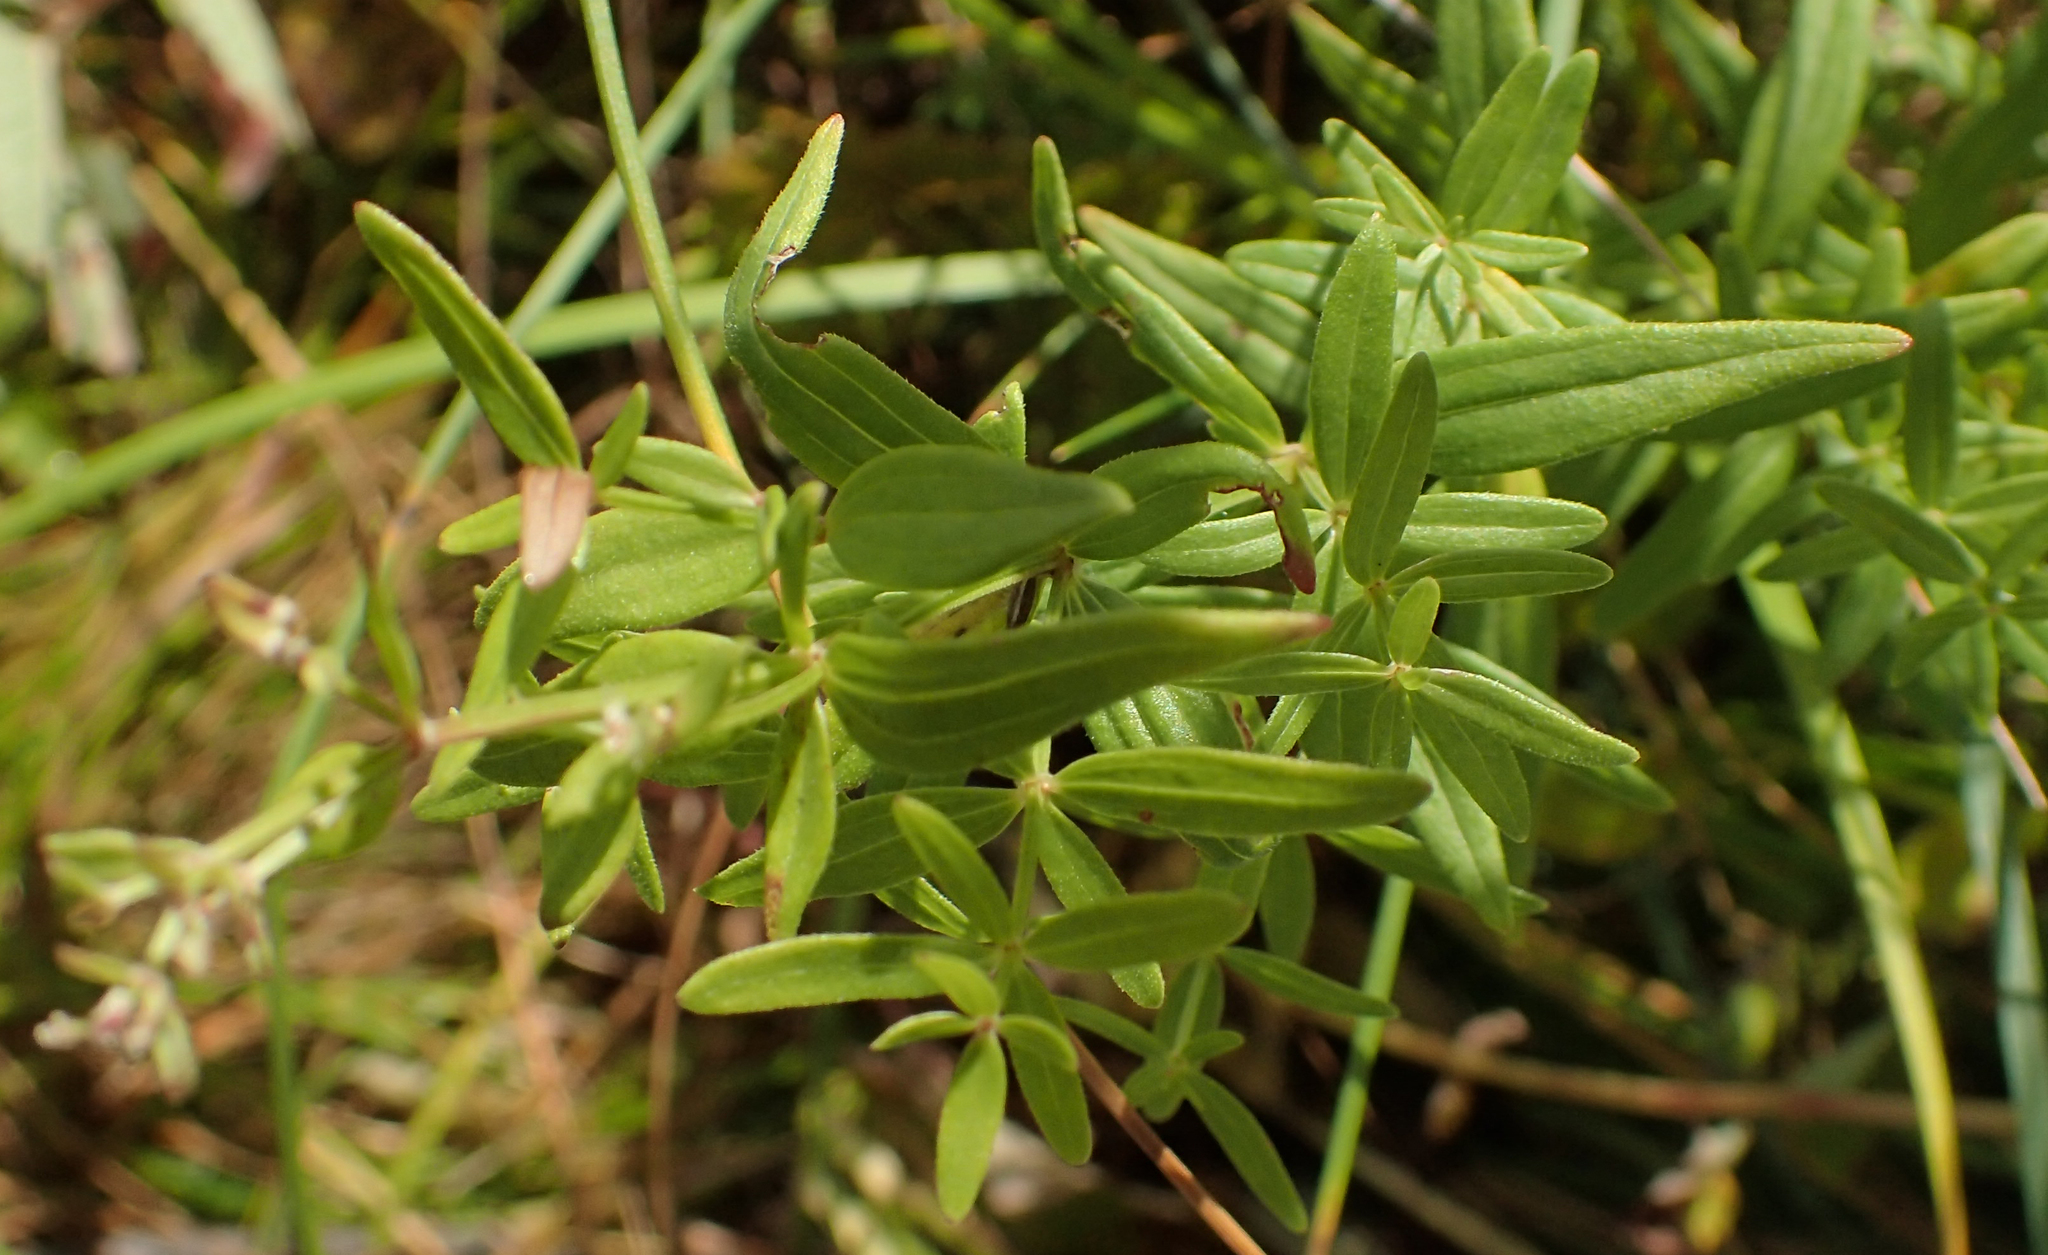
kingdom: Plantae
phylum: Tracheophyta
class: Magnoliopsida
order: Gentianales
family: Rubiaceae
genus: Galium
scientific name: Galium boreale
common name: Northern bedstraw
